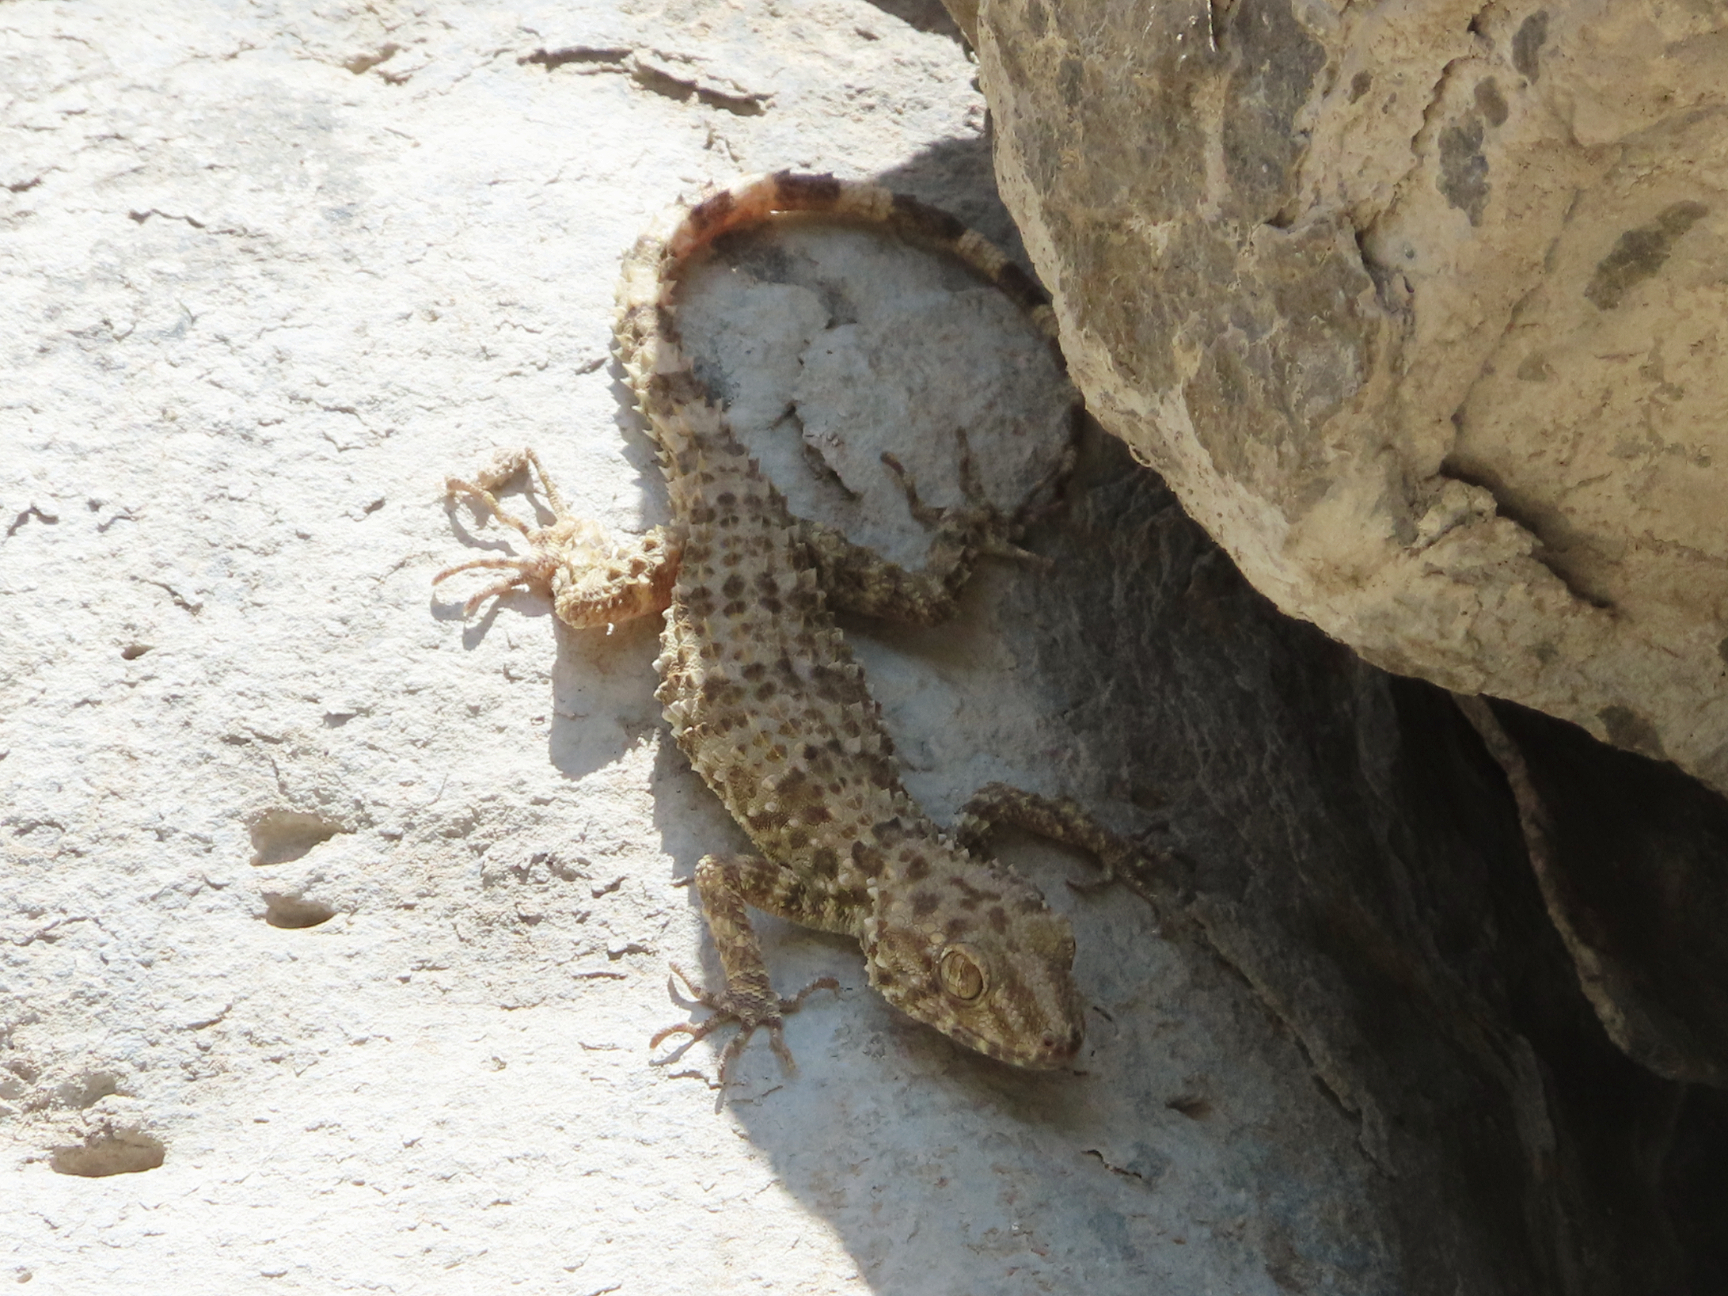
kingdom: Animalia
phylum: Chordata
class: Squamata
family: Gekkonidae
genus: Tenuidactylus
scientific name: Tenuidactylus caspius
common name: Caspian bent-toed gecko
